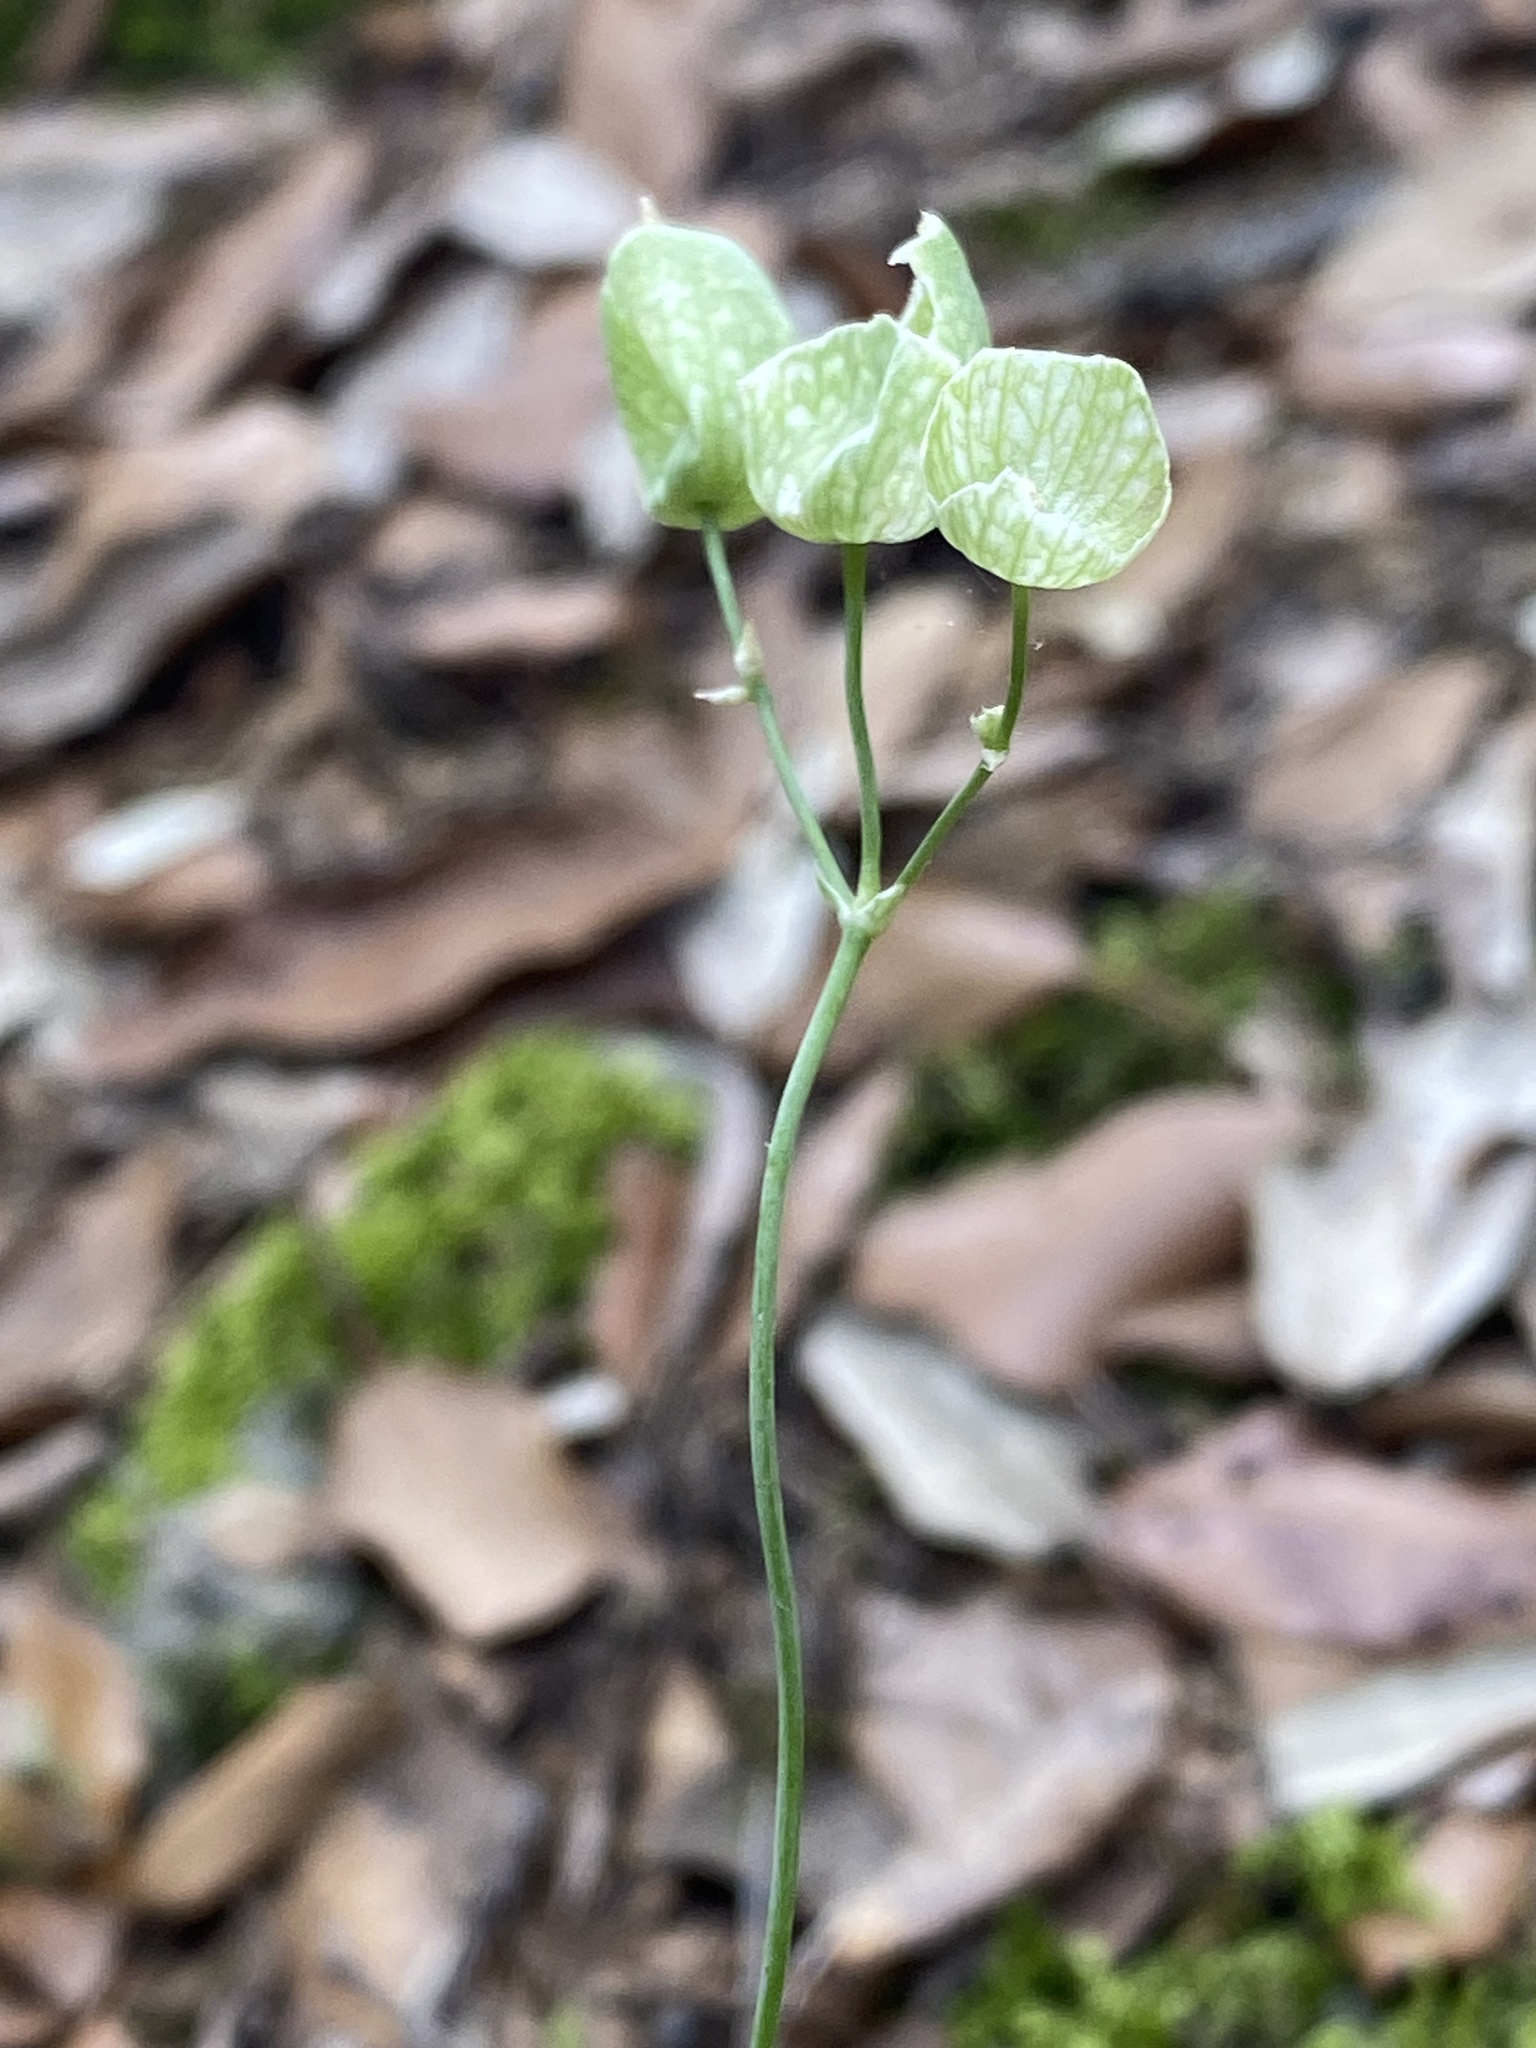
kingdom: Plantae
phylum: Tracheophyta
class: Magnoliopsida
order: Caryophyllales
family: Caryophyllaceae
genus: Silene
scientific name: Silene vulgaris
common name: Bladder campion
